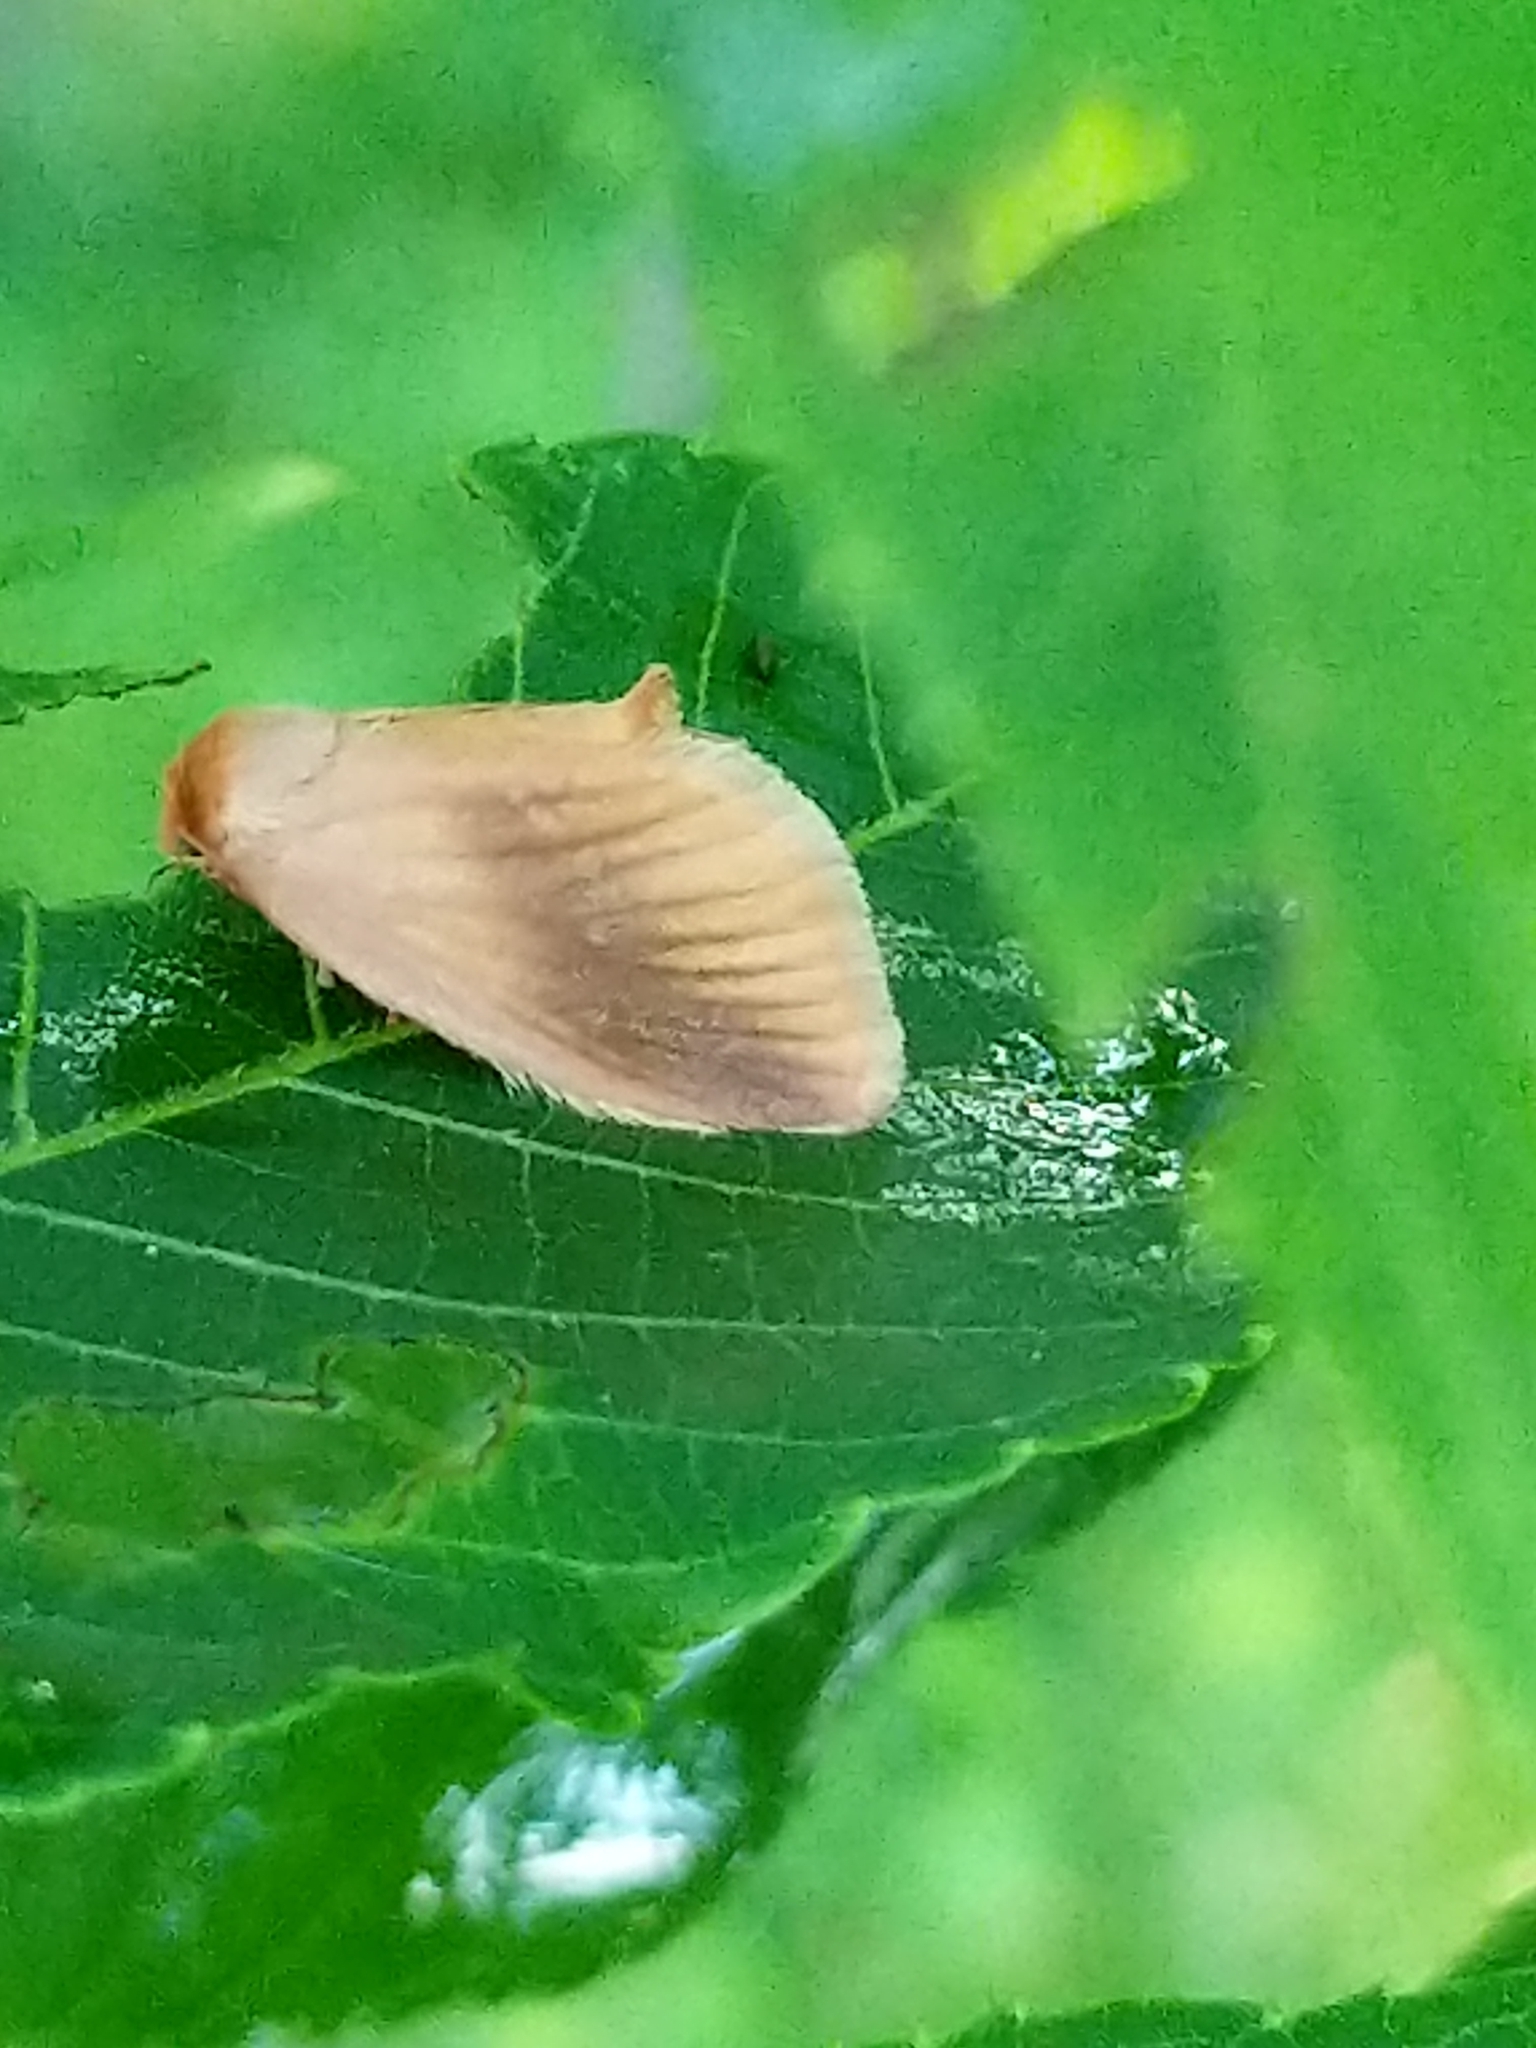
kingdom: Animalia
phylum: Arthropoda
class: Insecta
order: Lepidoptera
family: Limacodidae
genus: Tortricidia
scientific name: Tortricidia testacea
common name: Early button slug moth
